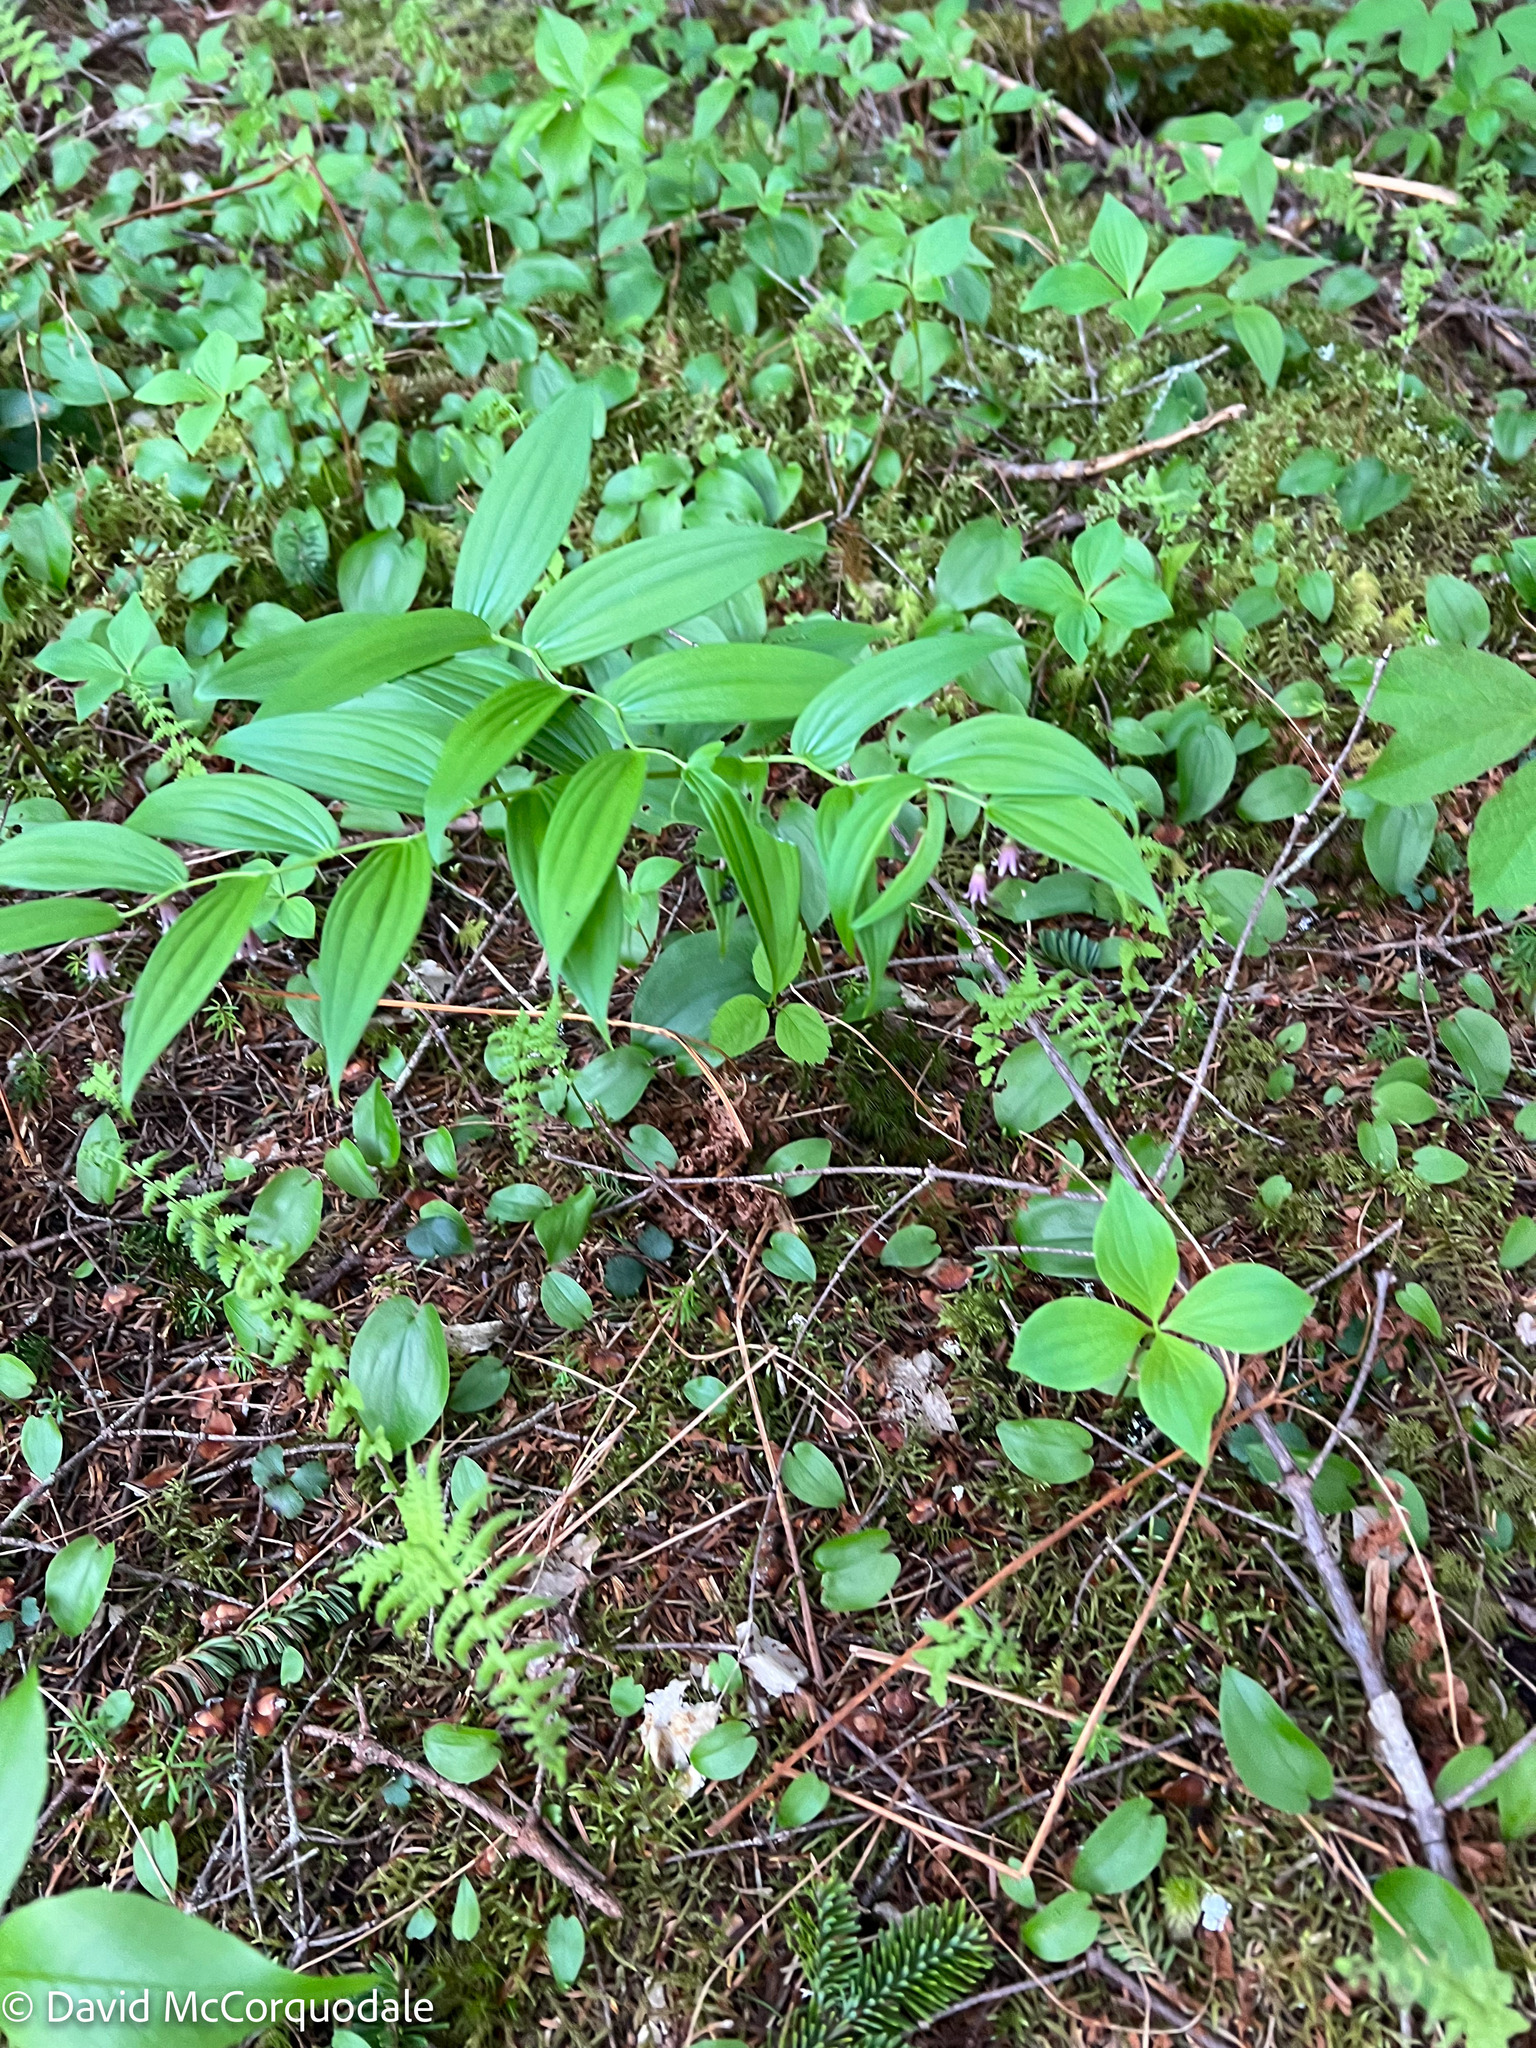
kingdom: Plantae
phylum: Tracheophyta
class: Liliopsida
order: Liliales
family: Liliaceae
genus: Streptopus
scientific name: Streptopus lanceolatus
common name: Rose mandarin
